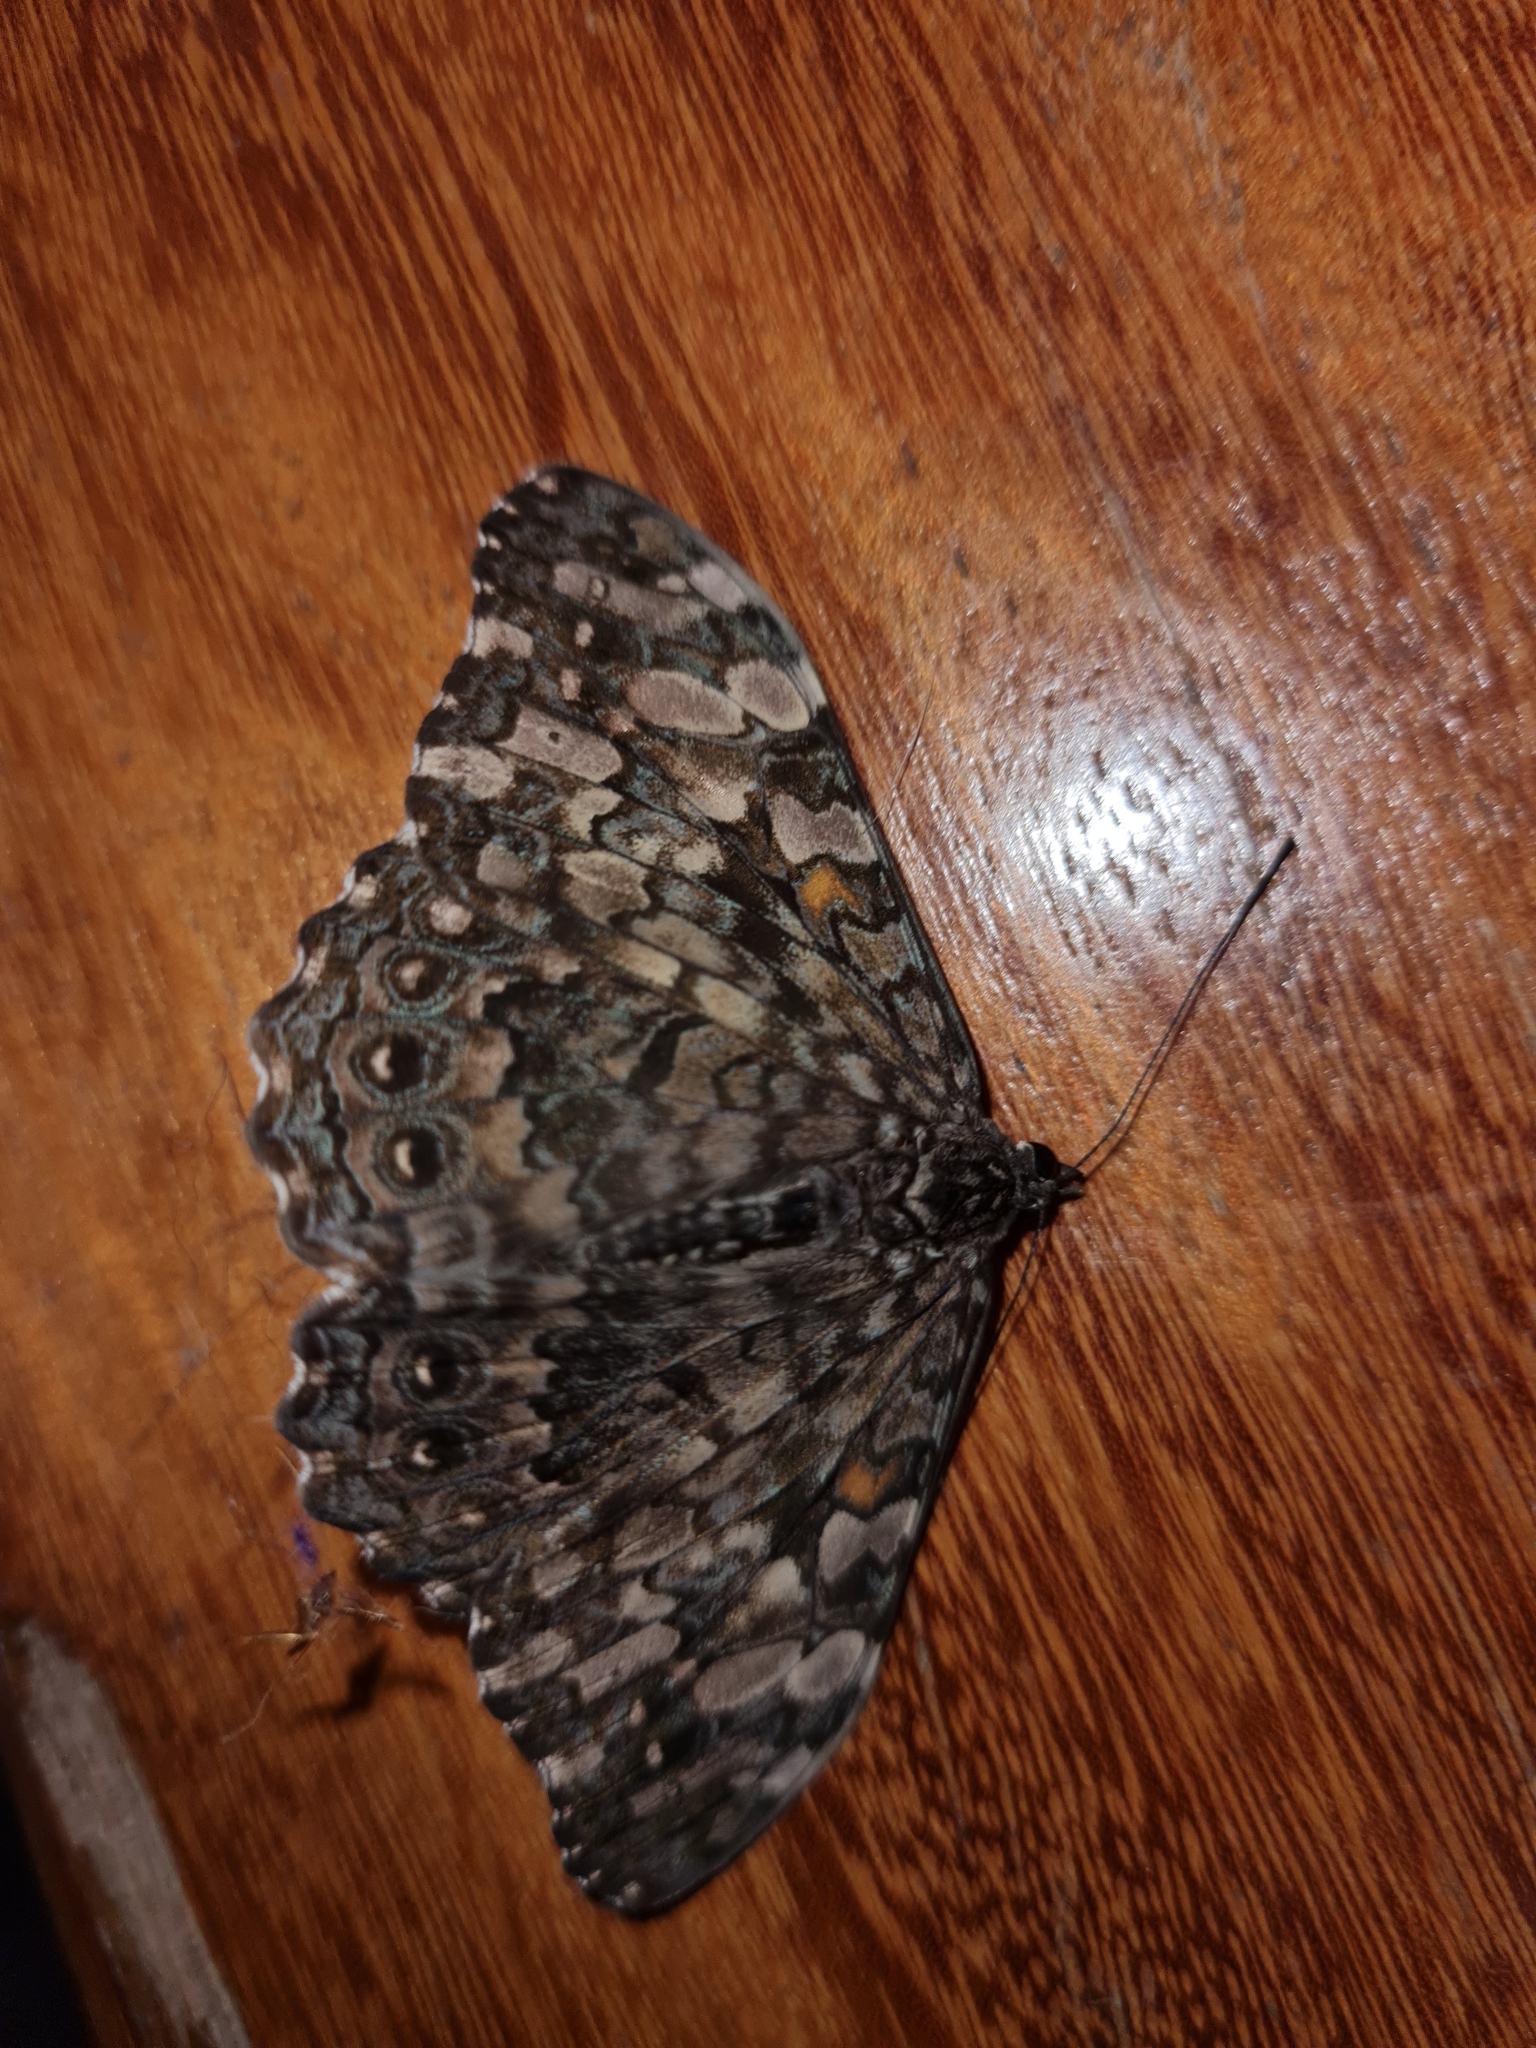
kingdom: Animalia
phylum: Arthropoda
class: Insecta
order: Lepidoptera
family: Nymphalidae
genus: Hamadryas
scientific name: Hamadryas epinome
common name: Epinome cracker
